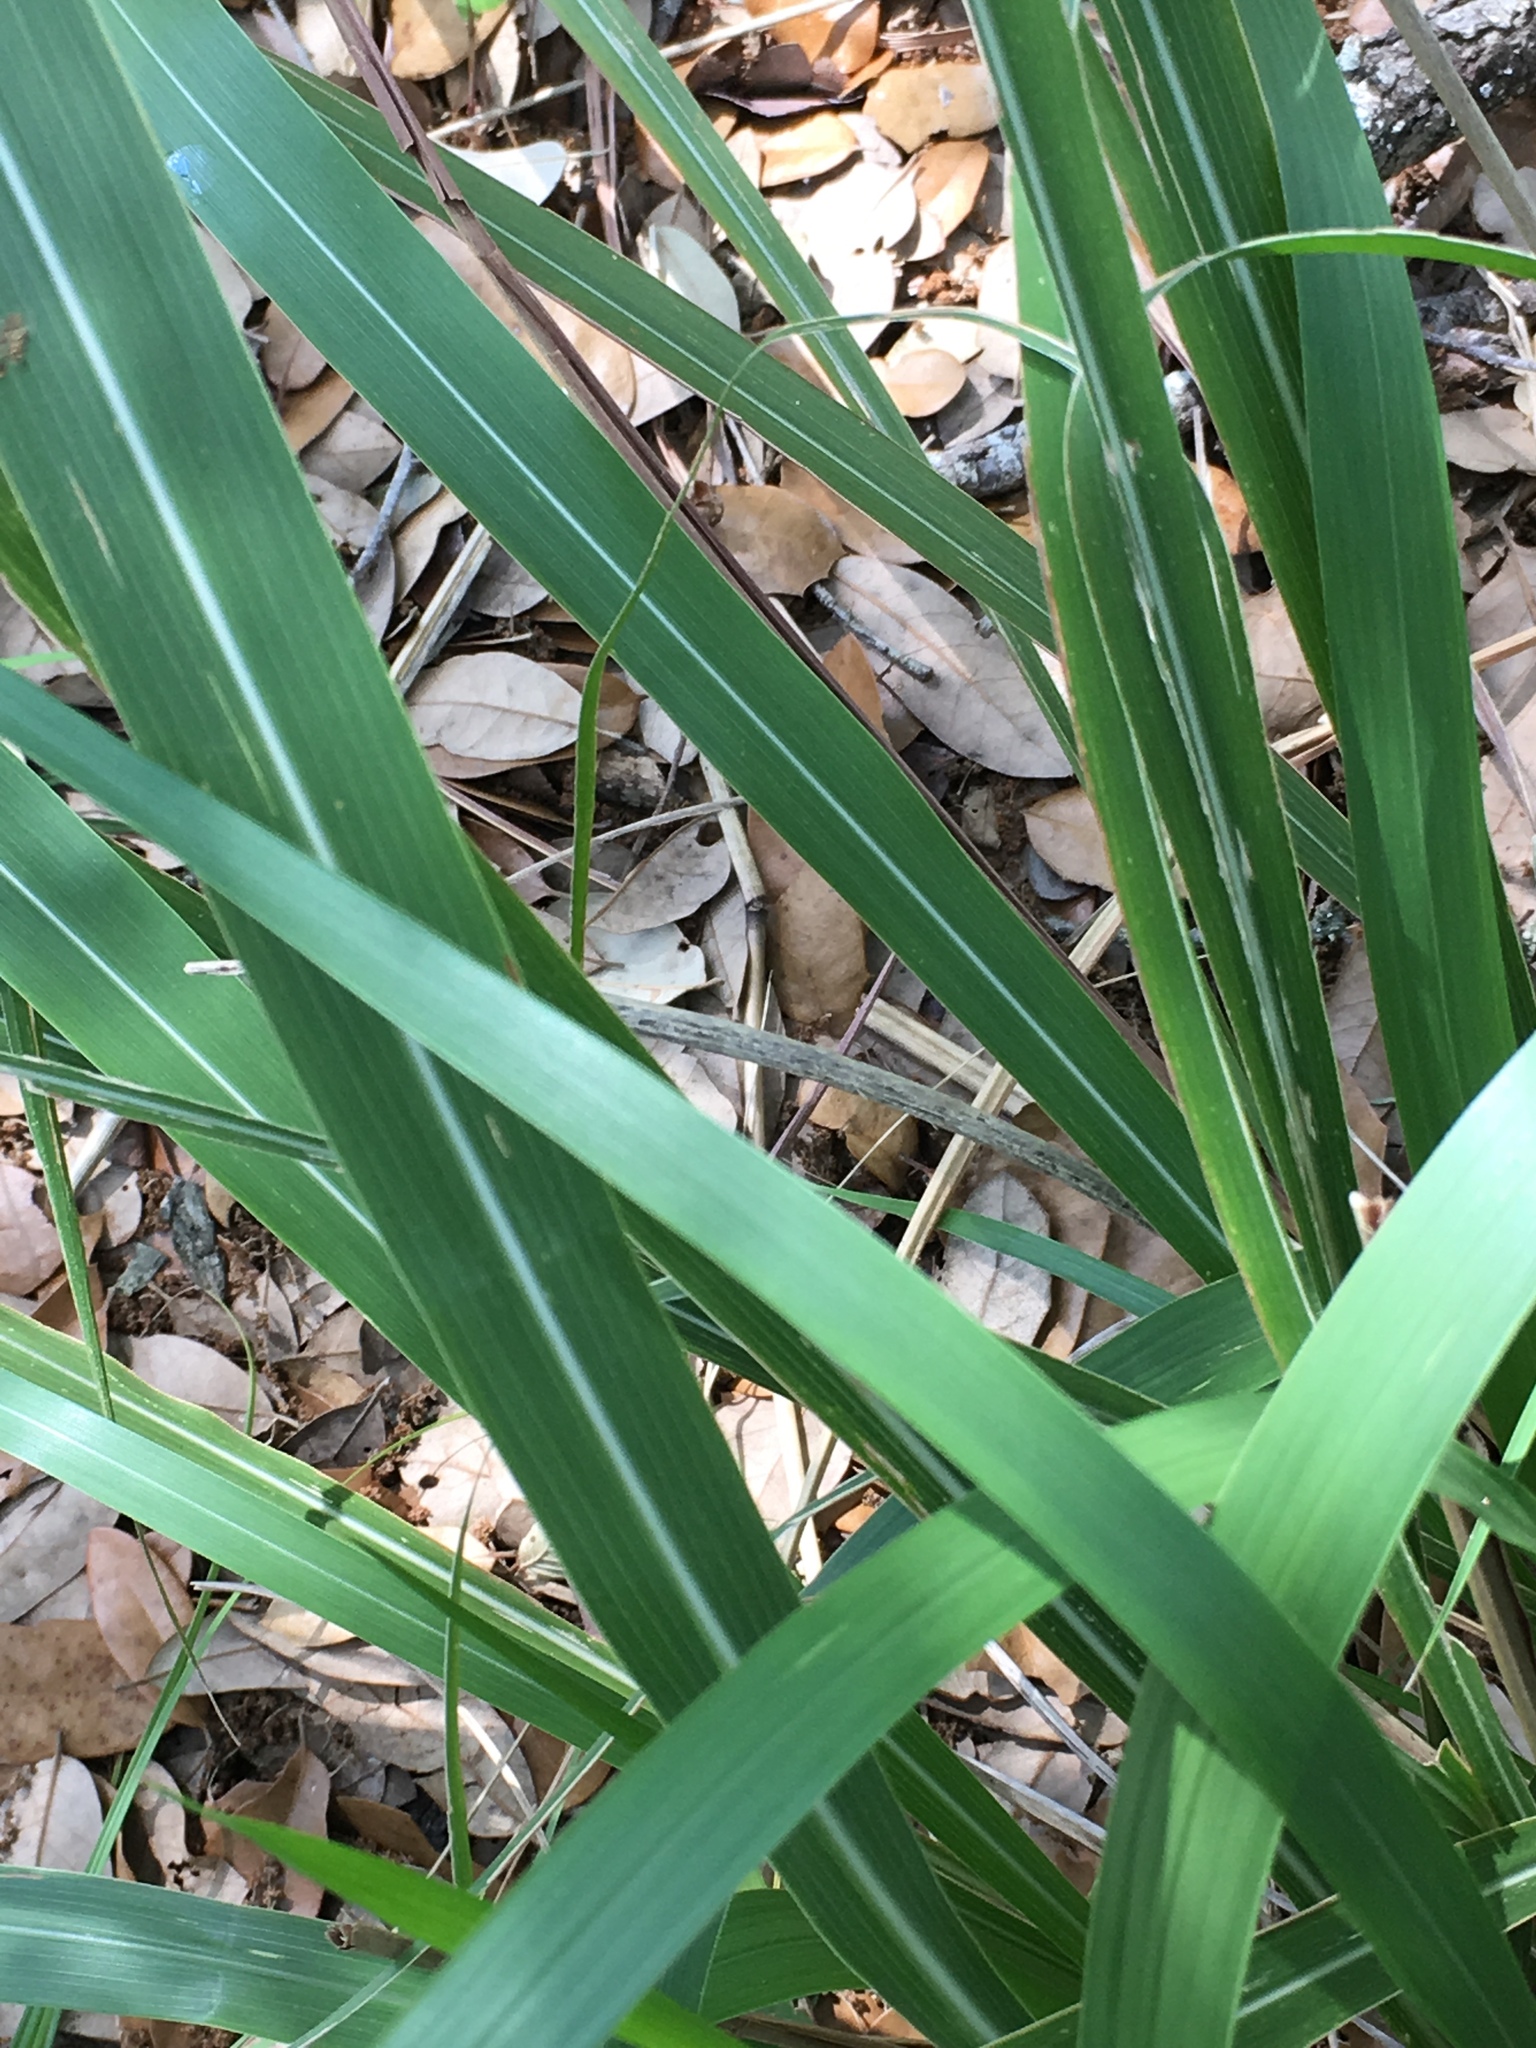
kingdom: Plantae
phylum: Tracheophyta
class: Liliopsida
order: Poales
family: Poaceae
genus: Tripsacum
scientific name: Tripsacum dactyloides
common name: Buffalo-grass
